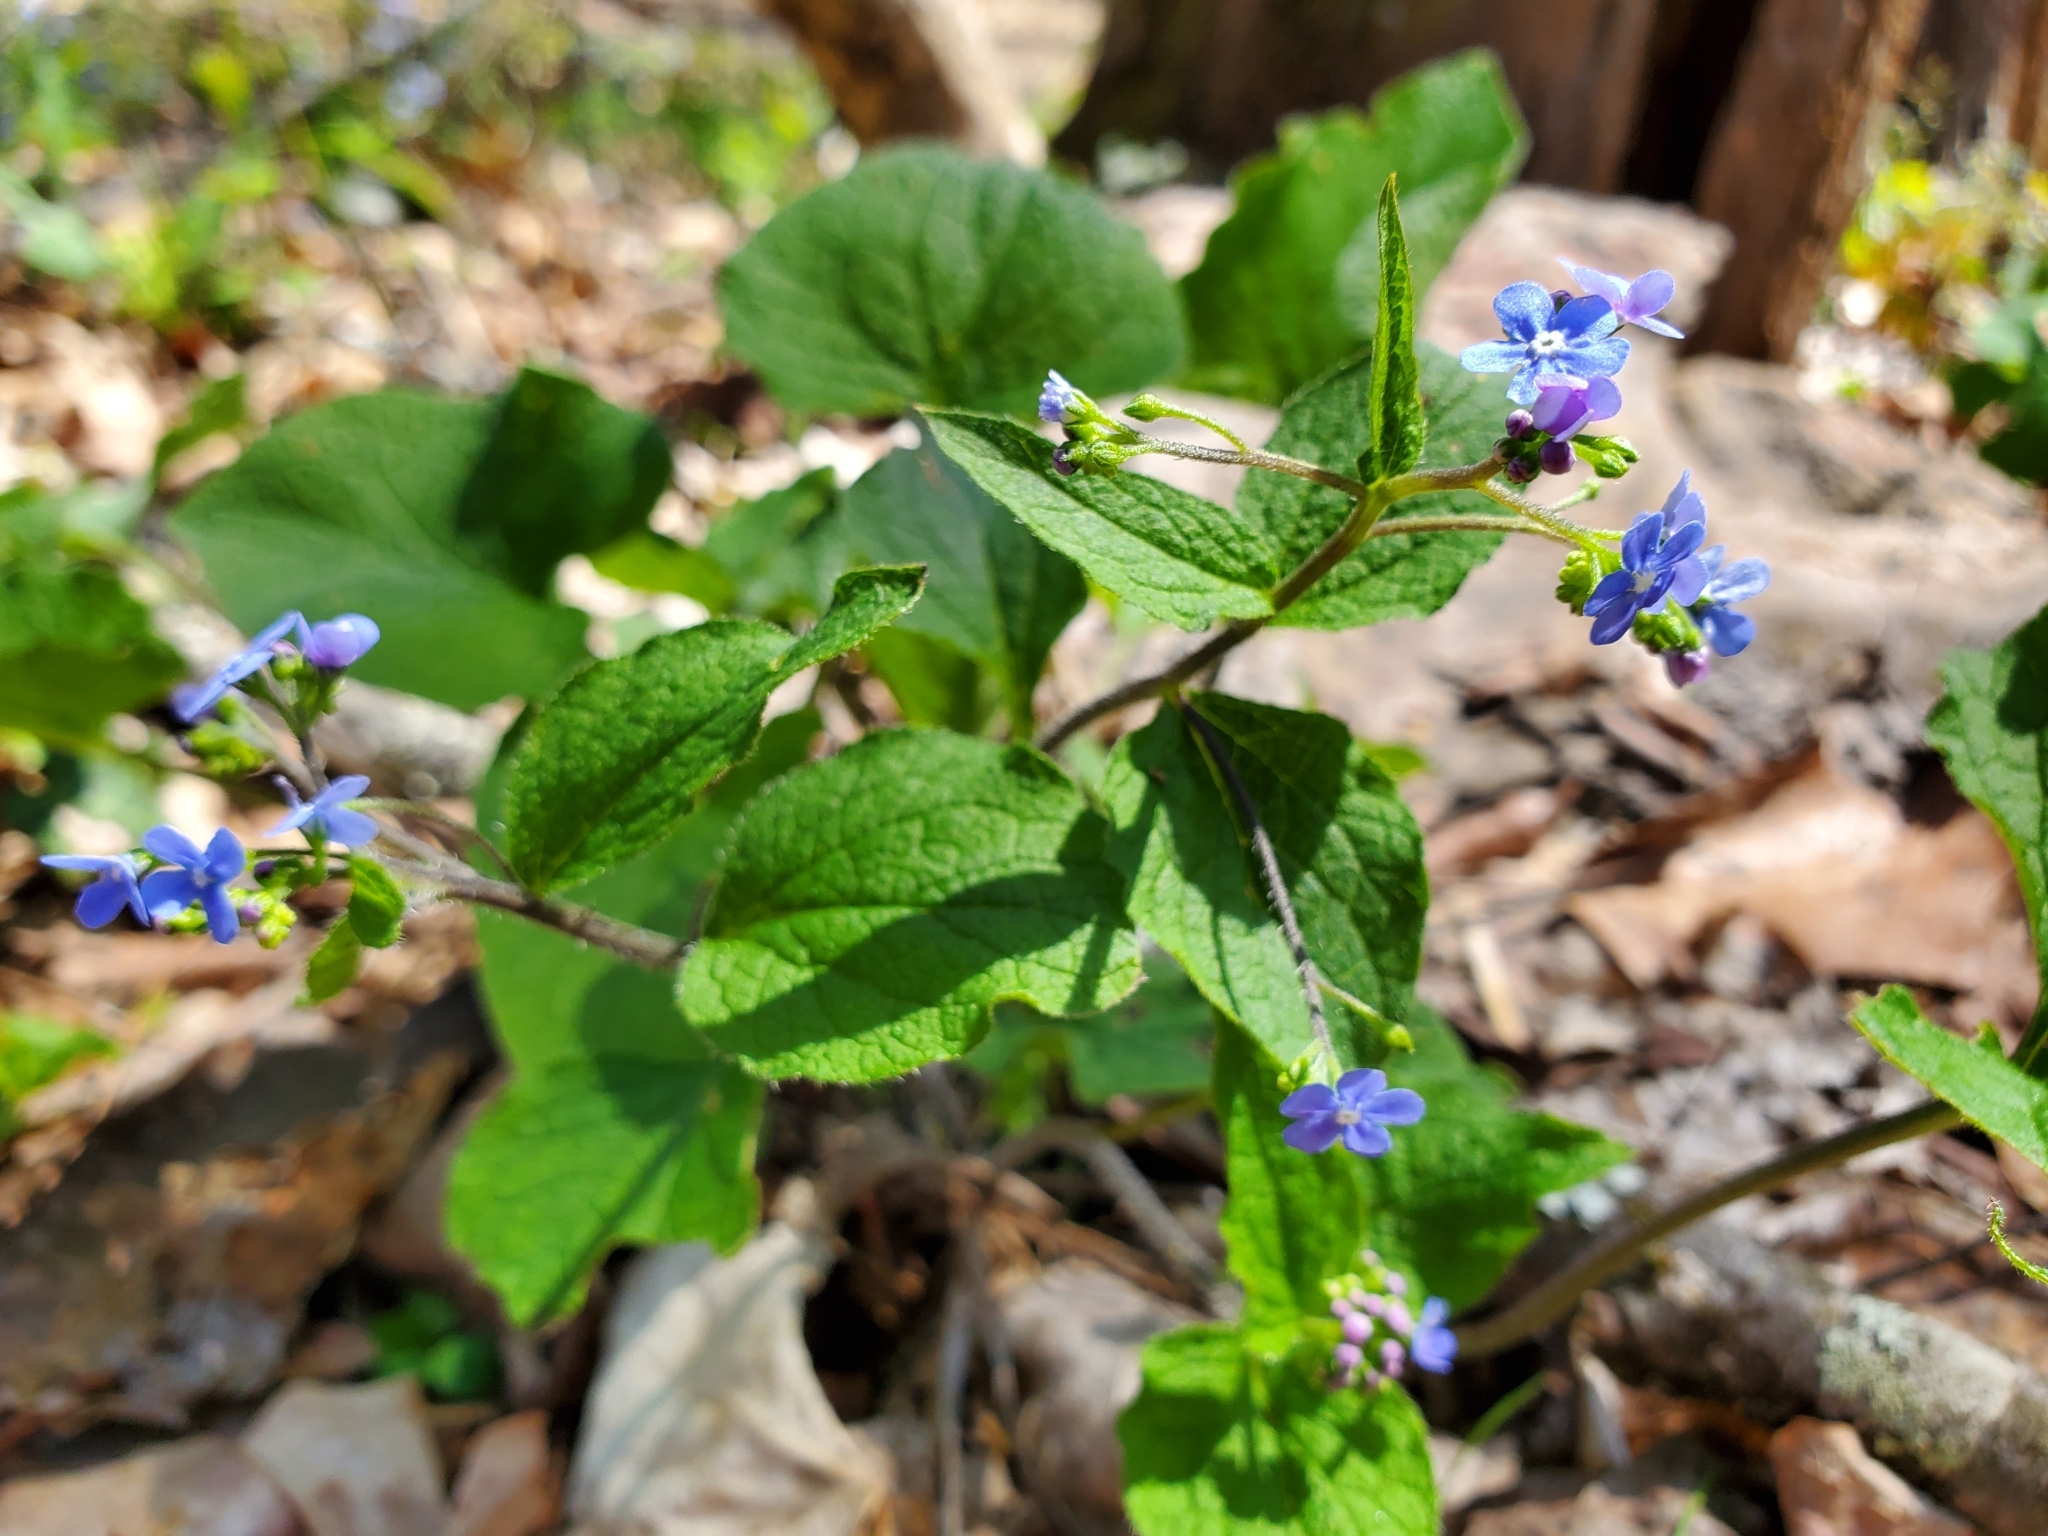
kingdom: Plantae
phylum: Tracheophyta
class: Magnoliopsida
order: Boraginales
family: Boraginaceae
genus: Brunnera
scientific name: Brunnera macrophylla
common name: Great forget-me-not
